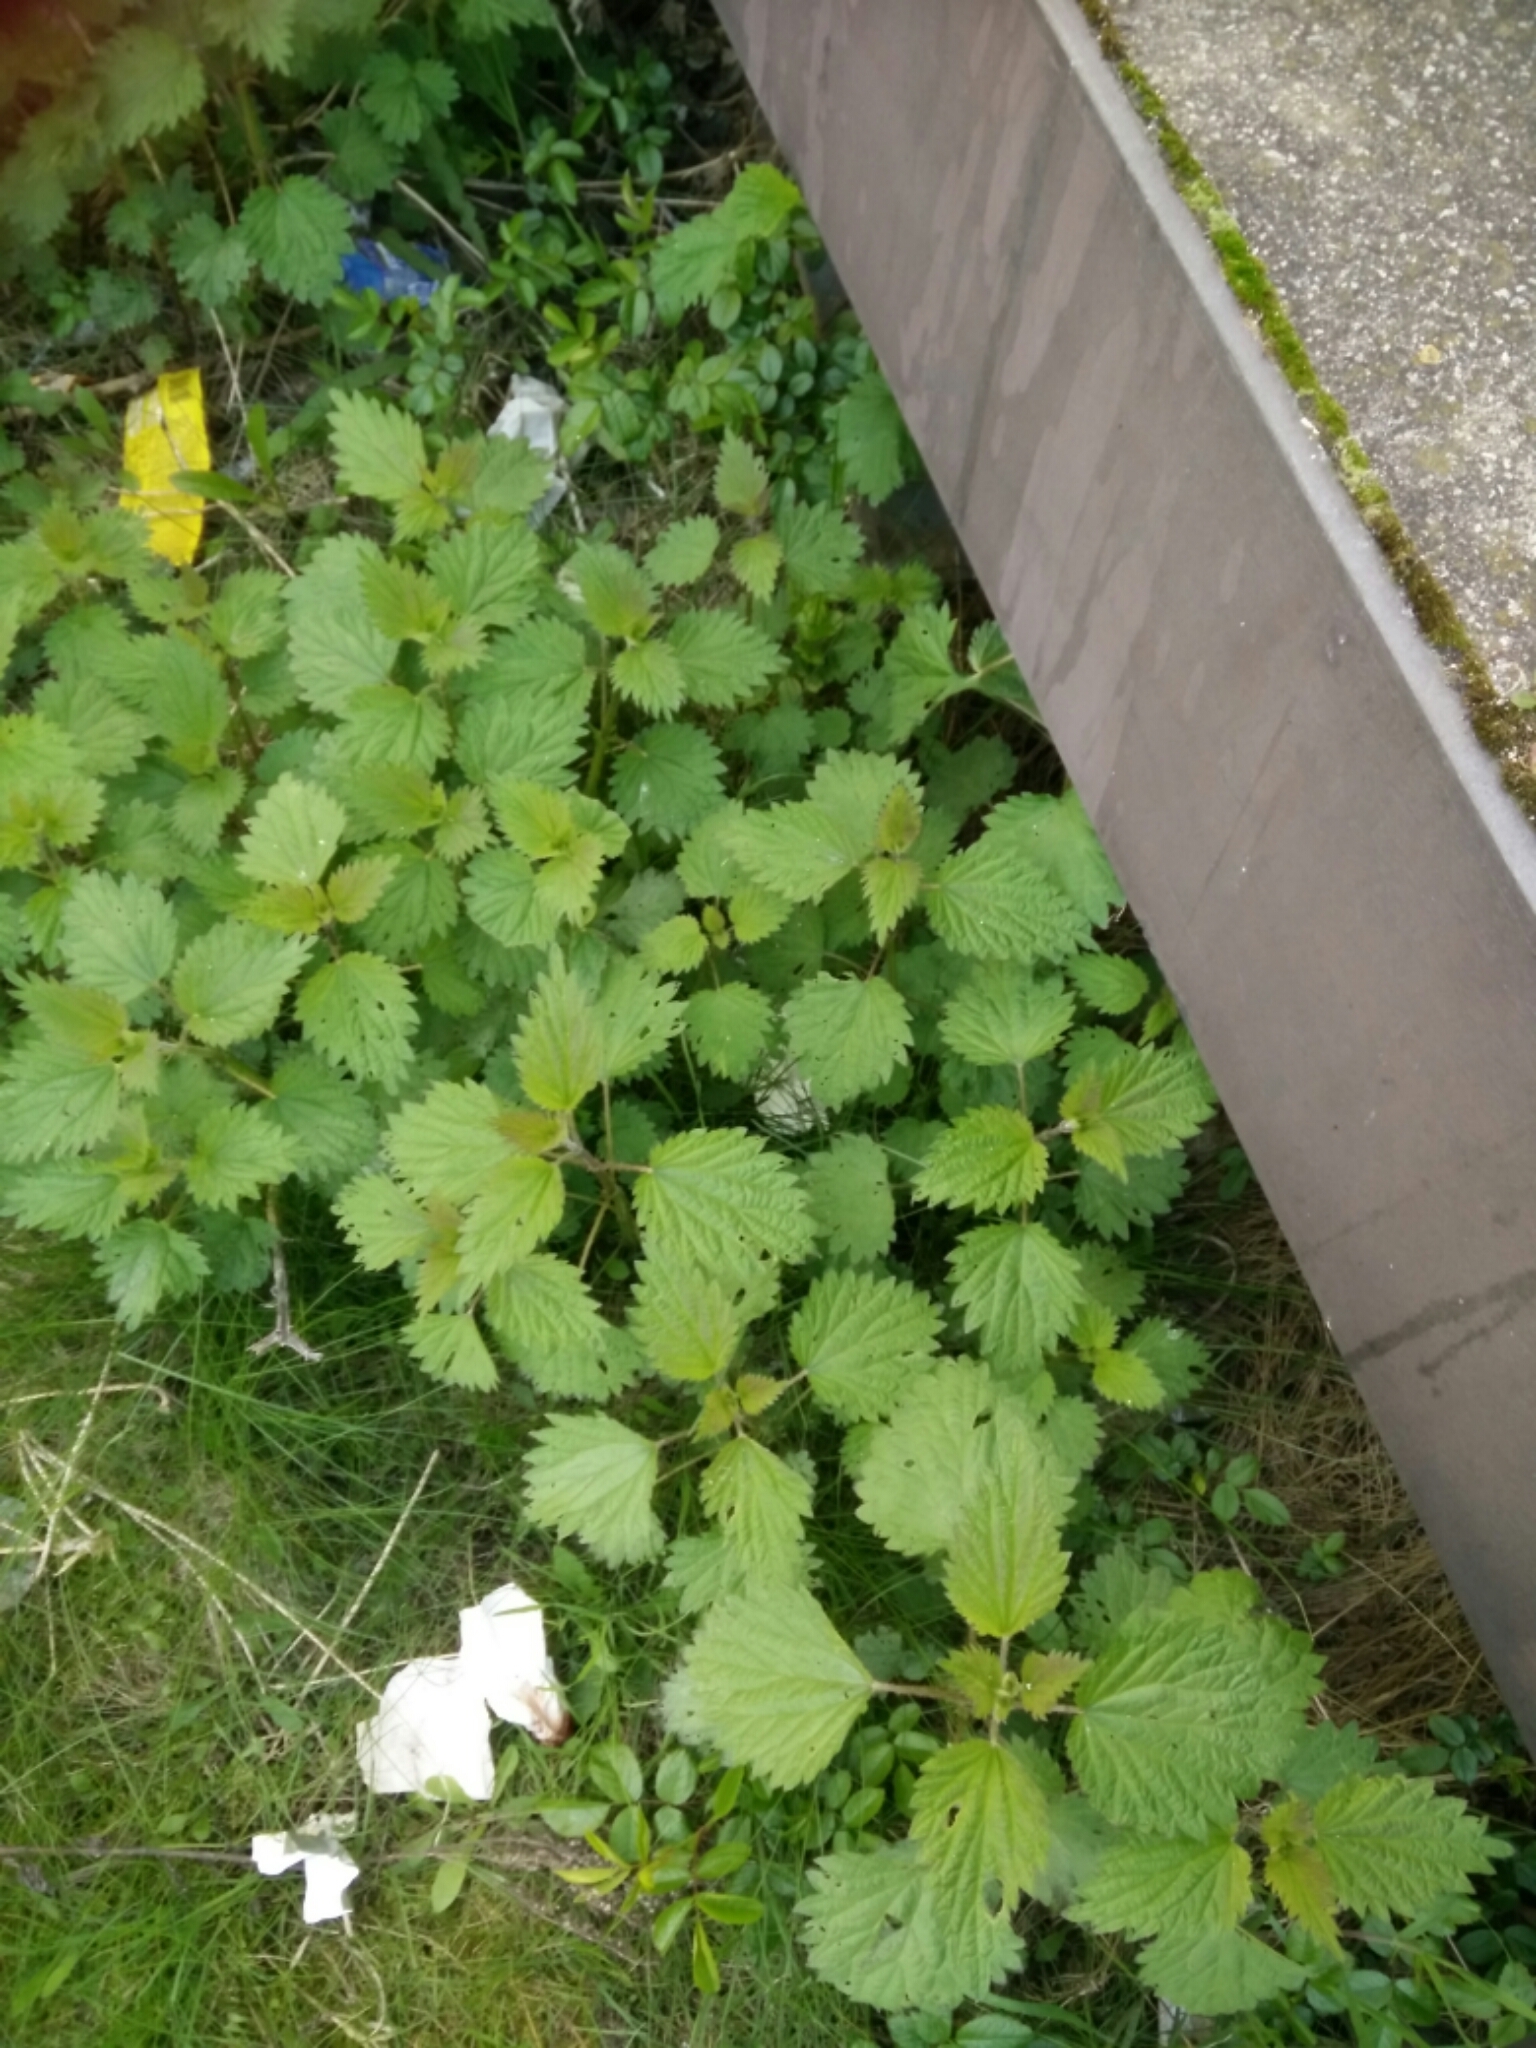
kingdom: Plantae
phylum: Tracheophyta
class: Magnoliopsida
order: Rosales
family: Urticaceae
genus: Urtica
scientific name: Urtica dioica
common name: Common nettle
